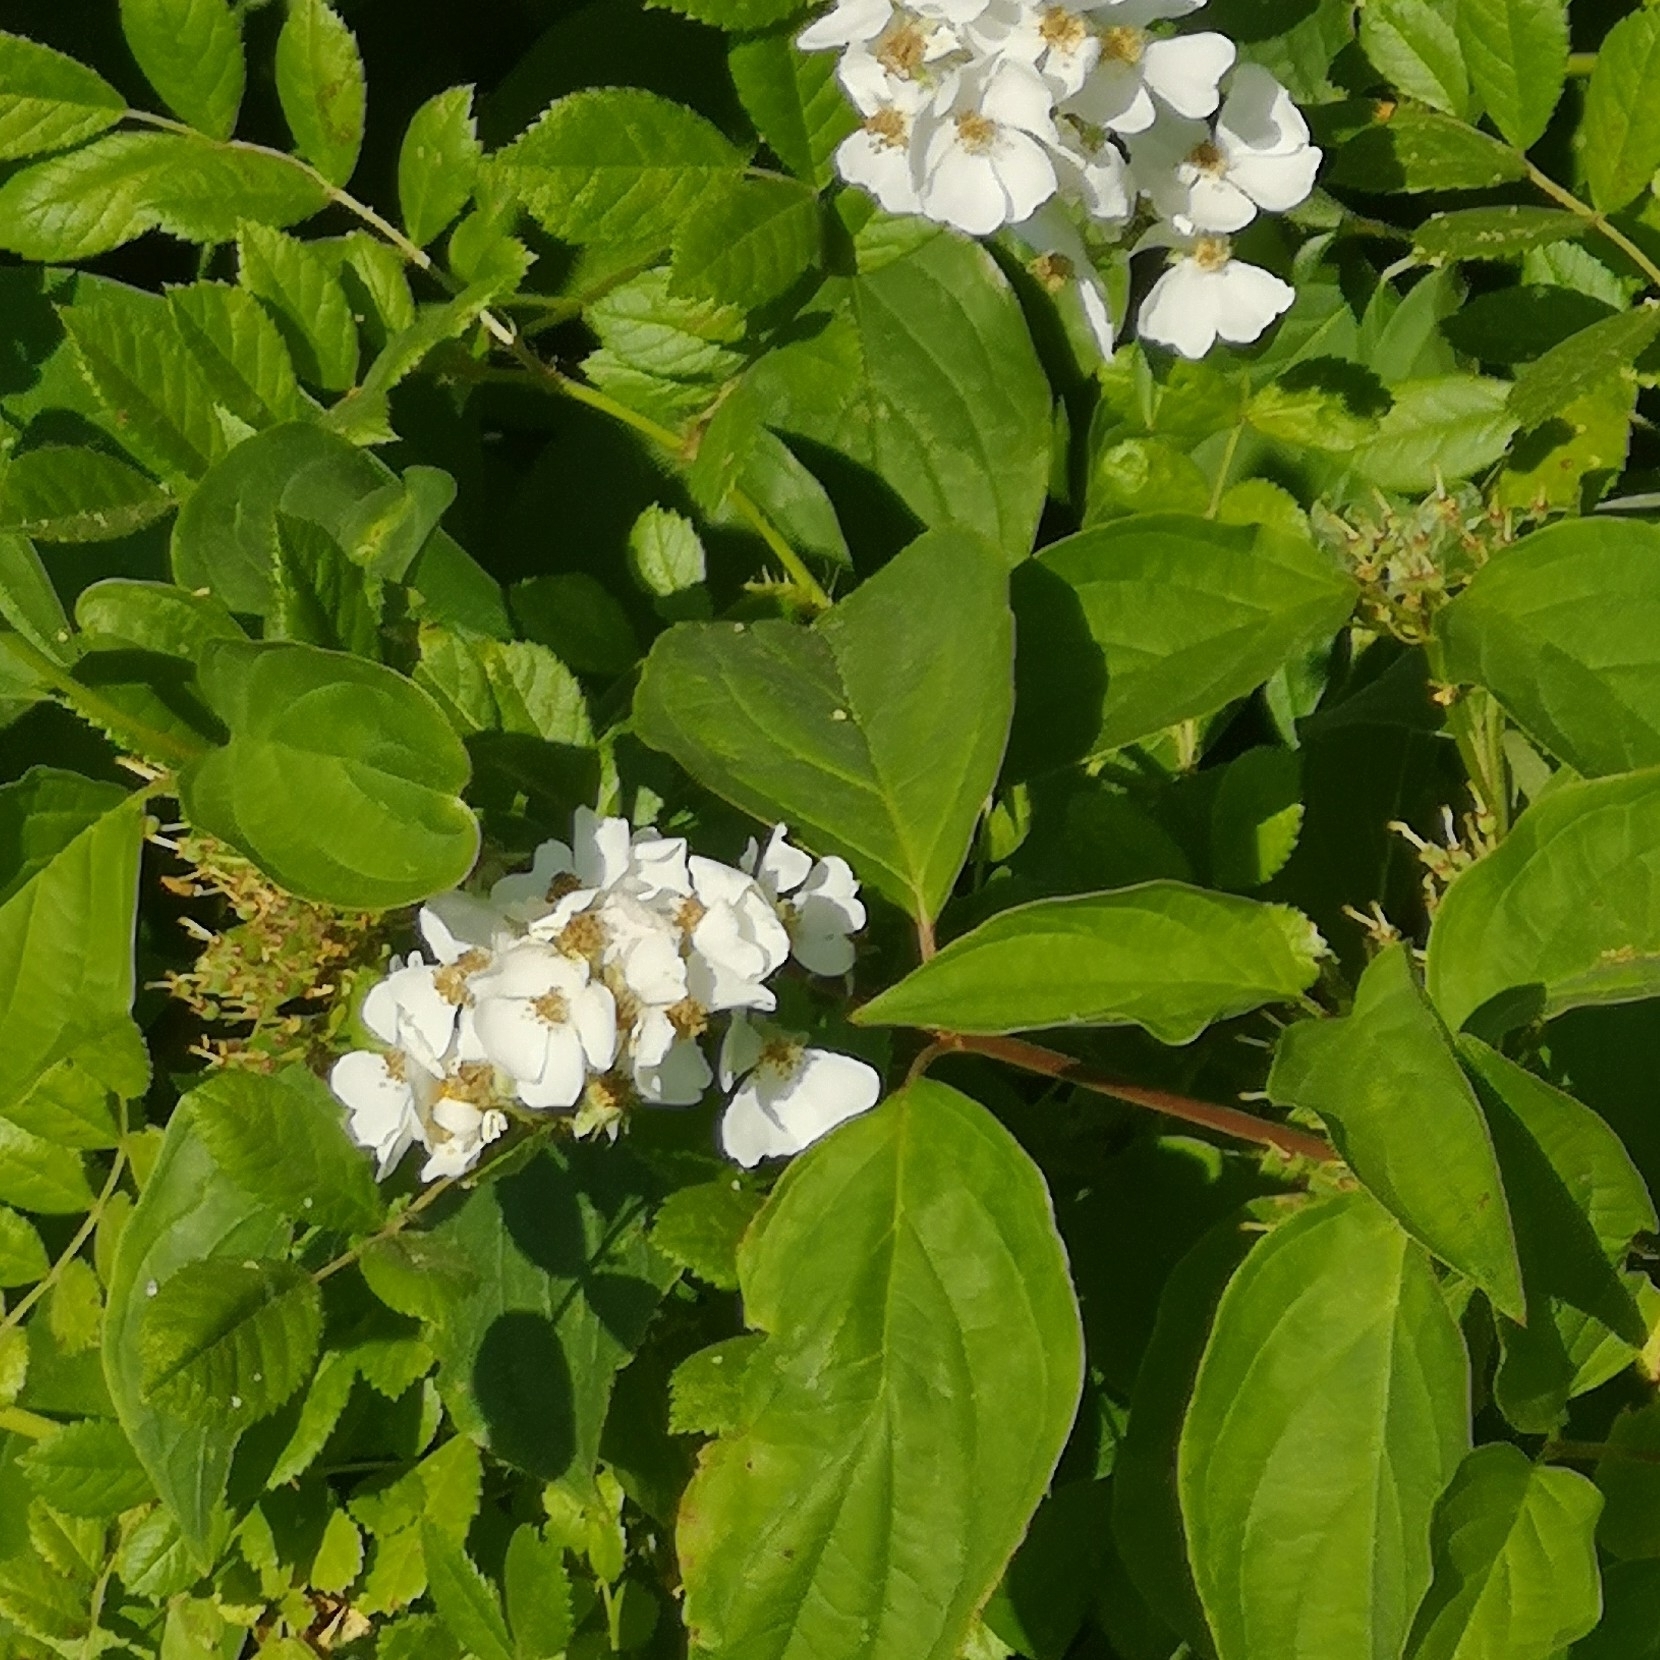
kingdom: Plantae
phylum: Tracheophyta
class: Magnoliopsida
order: Rosales
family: Rosaceae
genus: Rosa
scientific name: Rosa multiflora
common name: Multiflora rose
